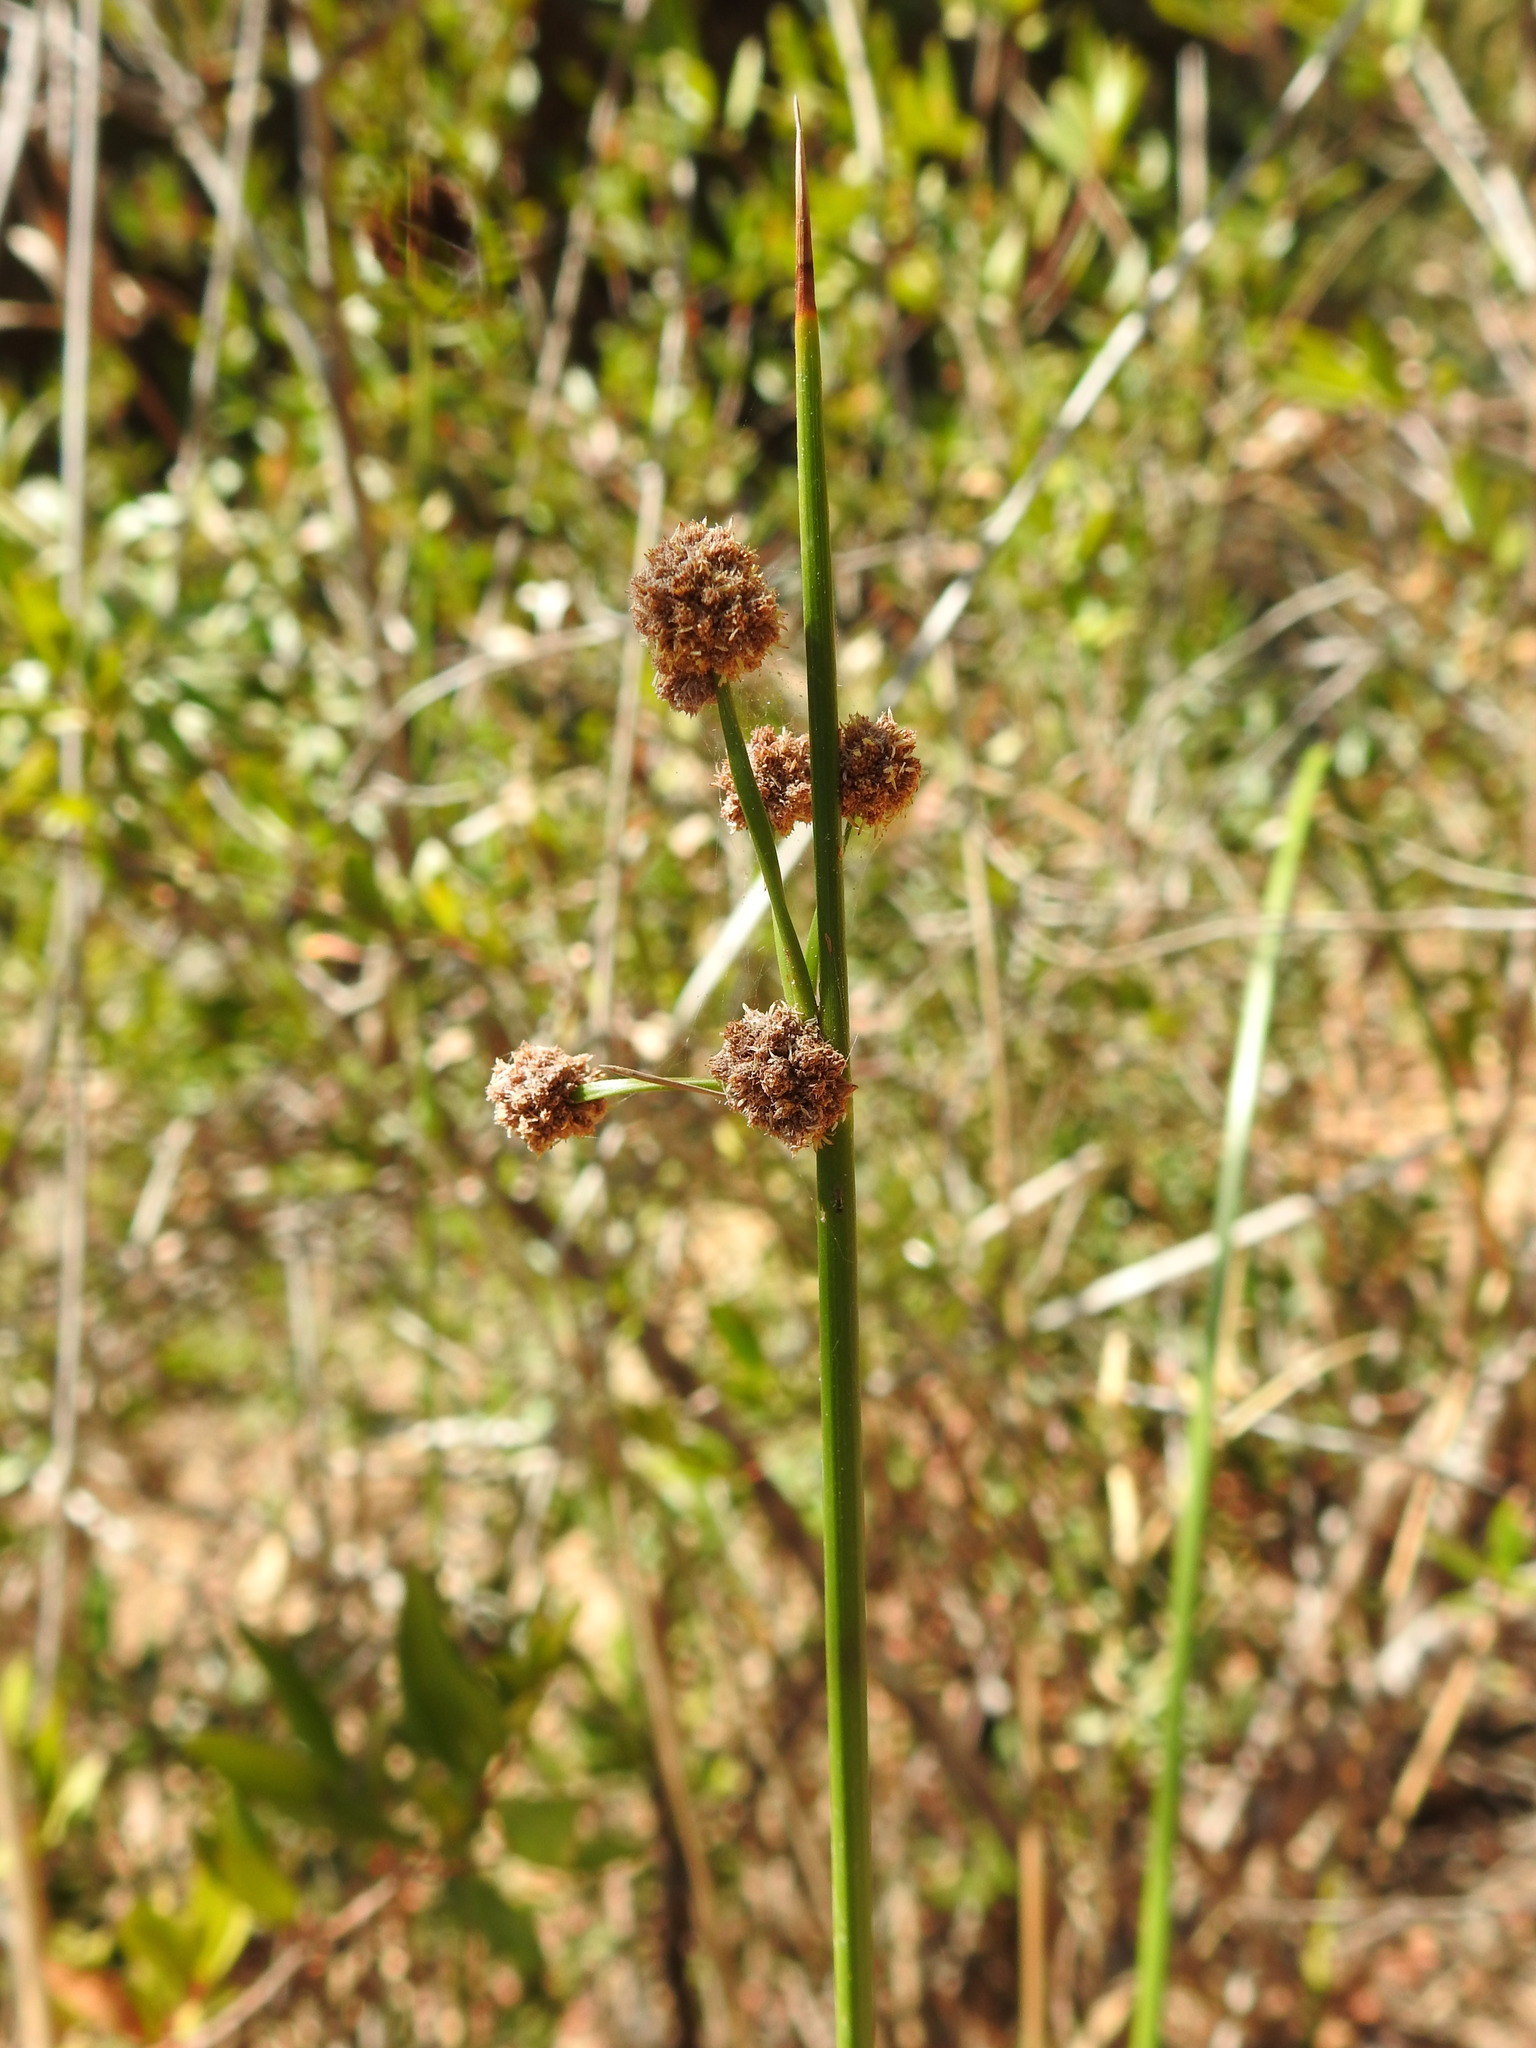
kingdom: Plantae
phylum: Tracheophyta
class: Liliopsida
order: Poales
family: Cyperaceae
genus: Scirpoides
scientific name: Scirpoides holoschoenus
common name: Round-headed club-rush
